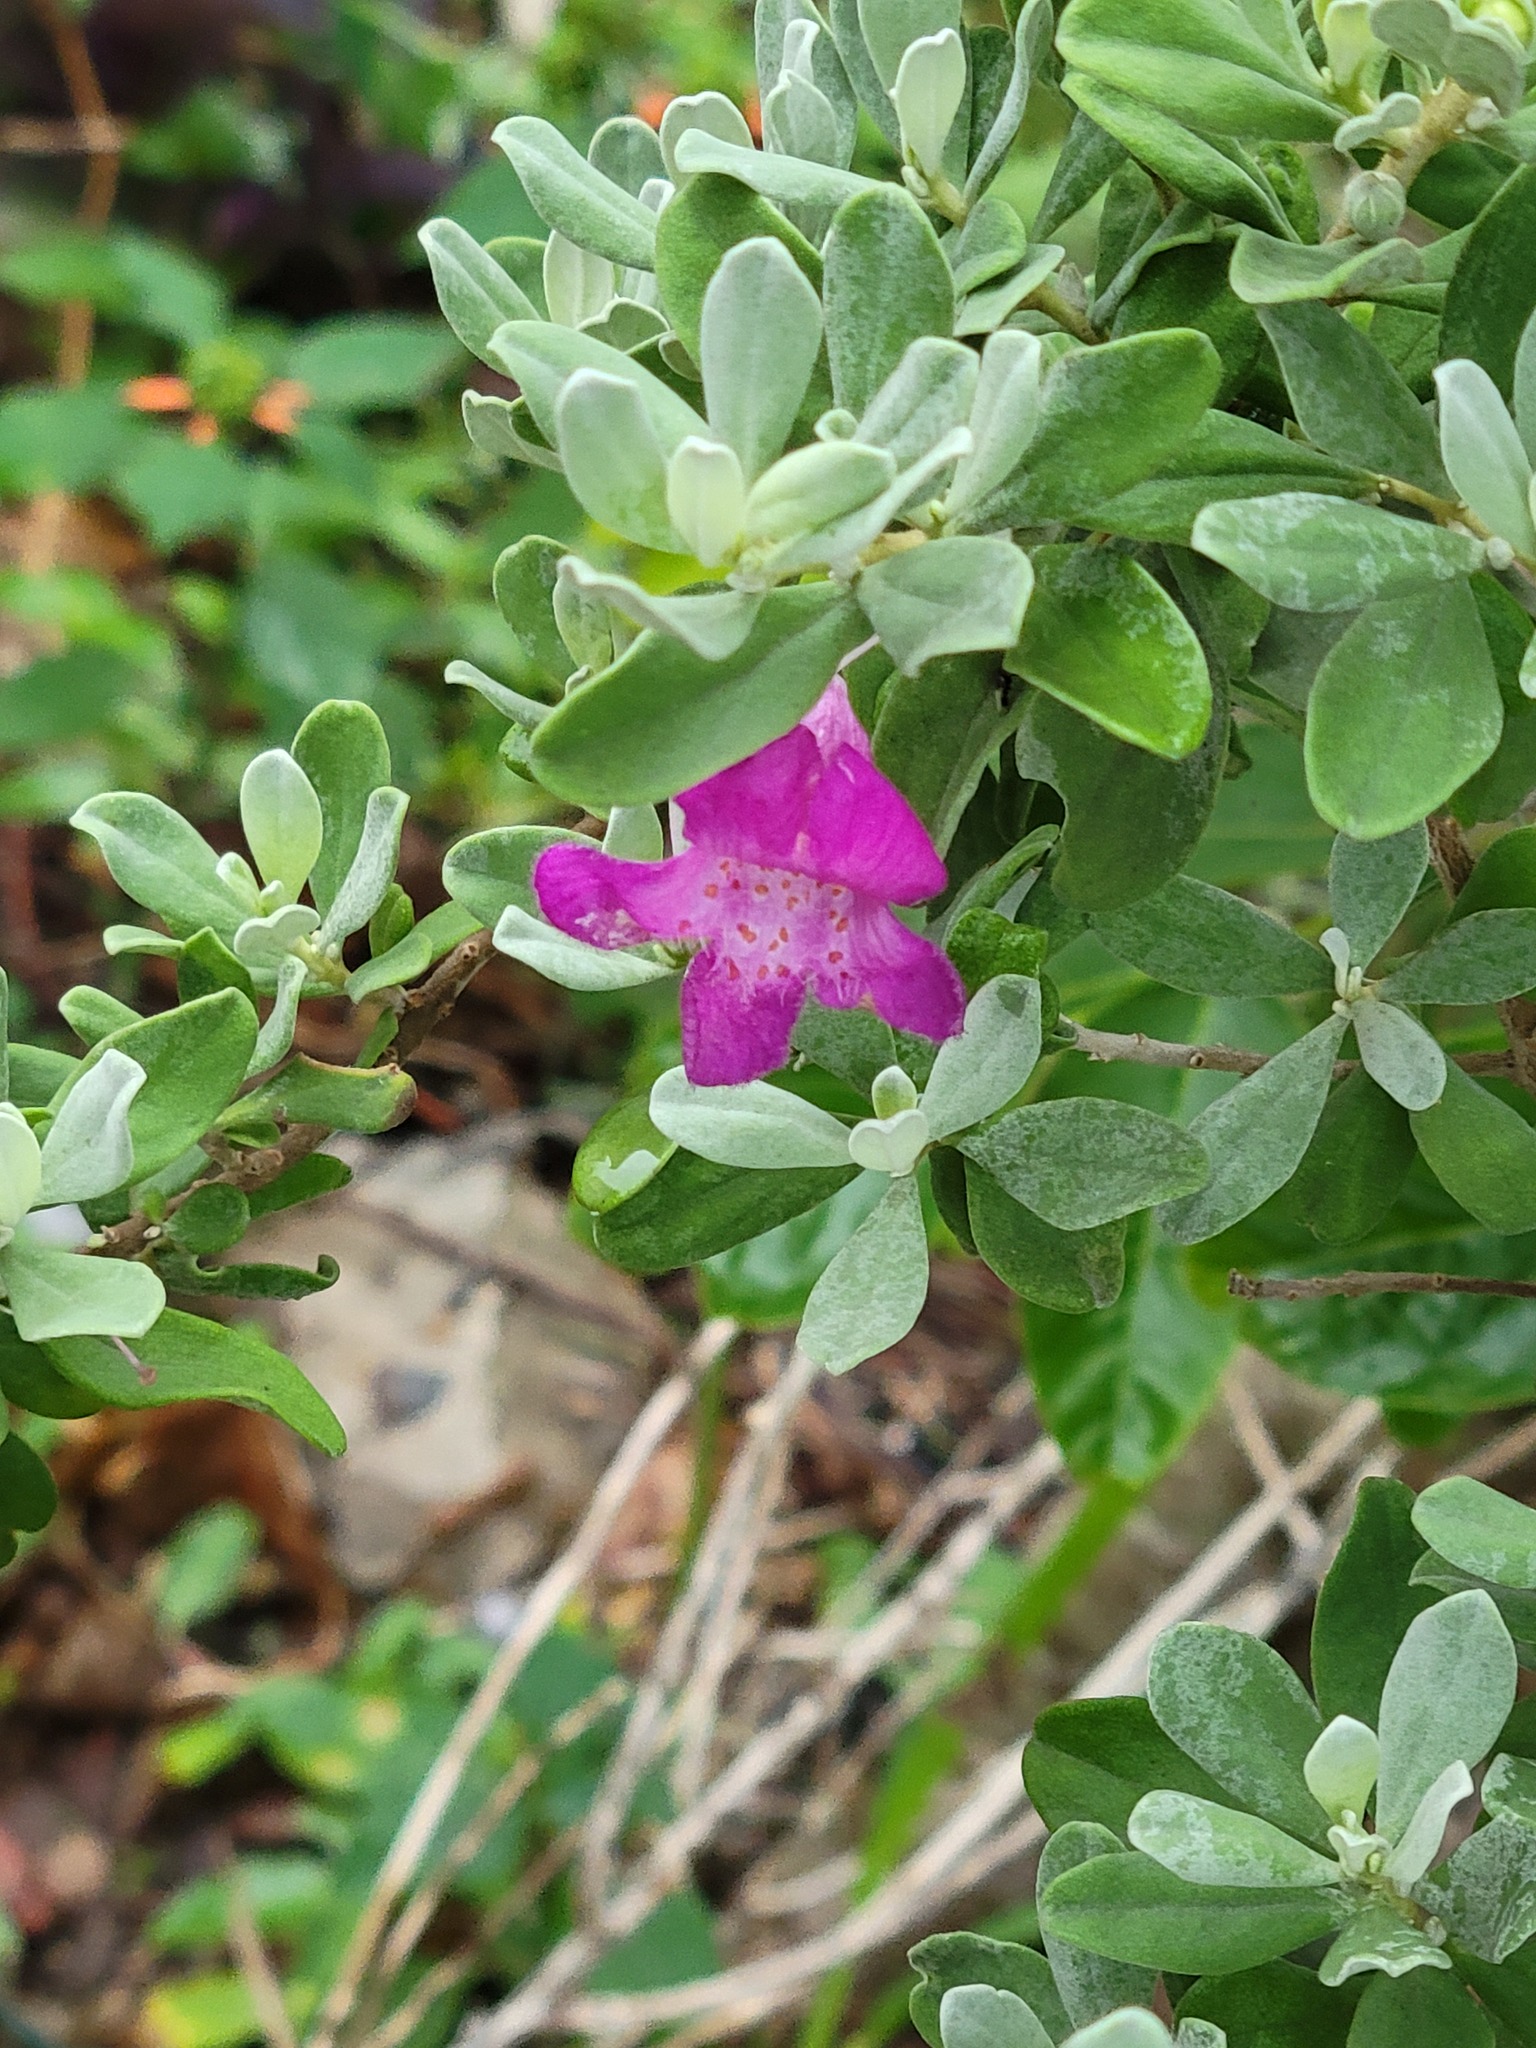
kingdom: Plantae
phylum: Tracheophyta
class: Magnoliopsida
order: Lamiales
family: Scrophulariaceae
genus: Leucophyllum
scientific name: Leucophyllum frutescens
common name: Texas silverleaf
